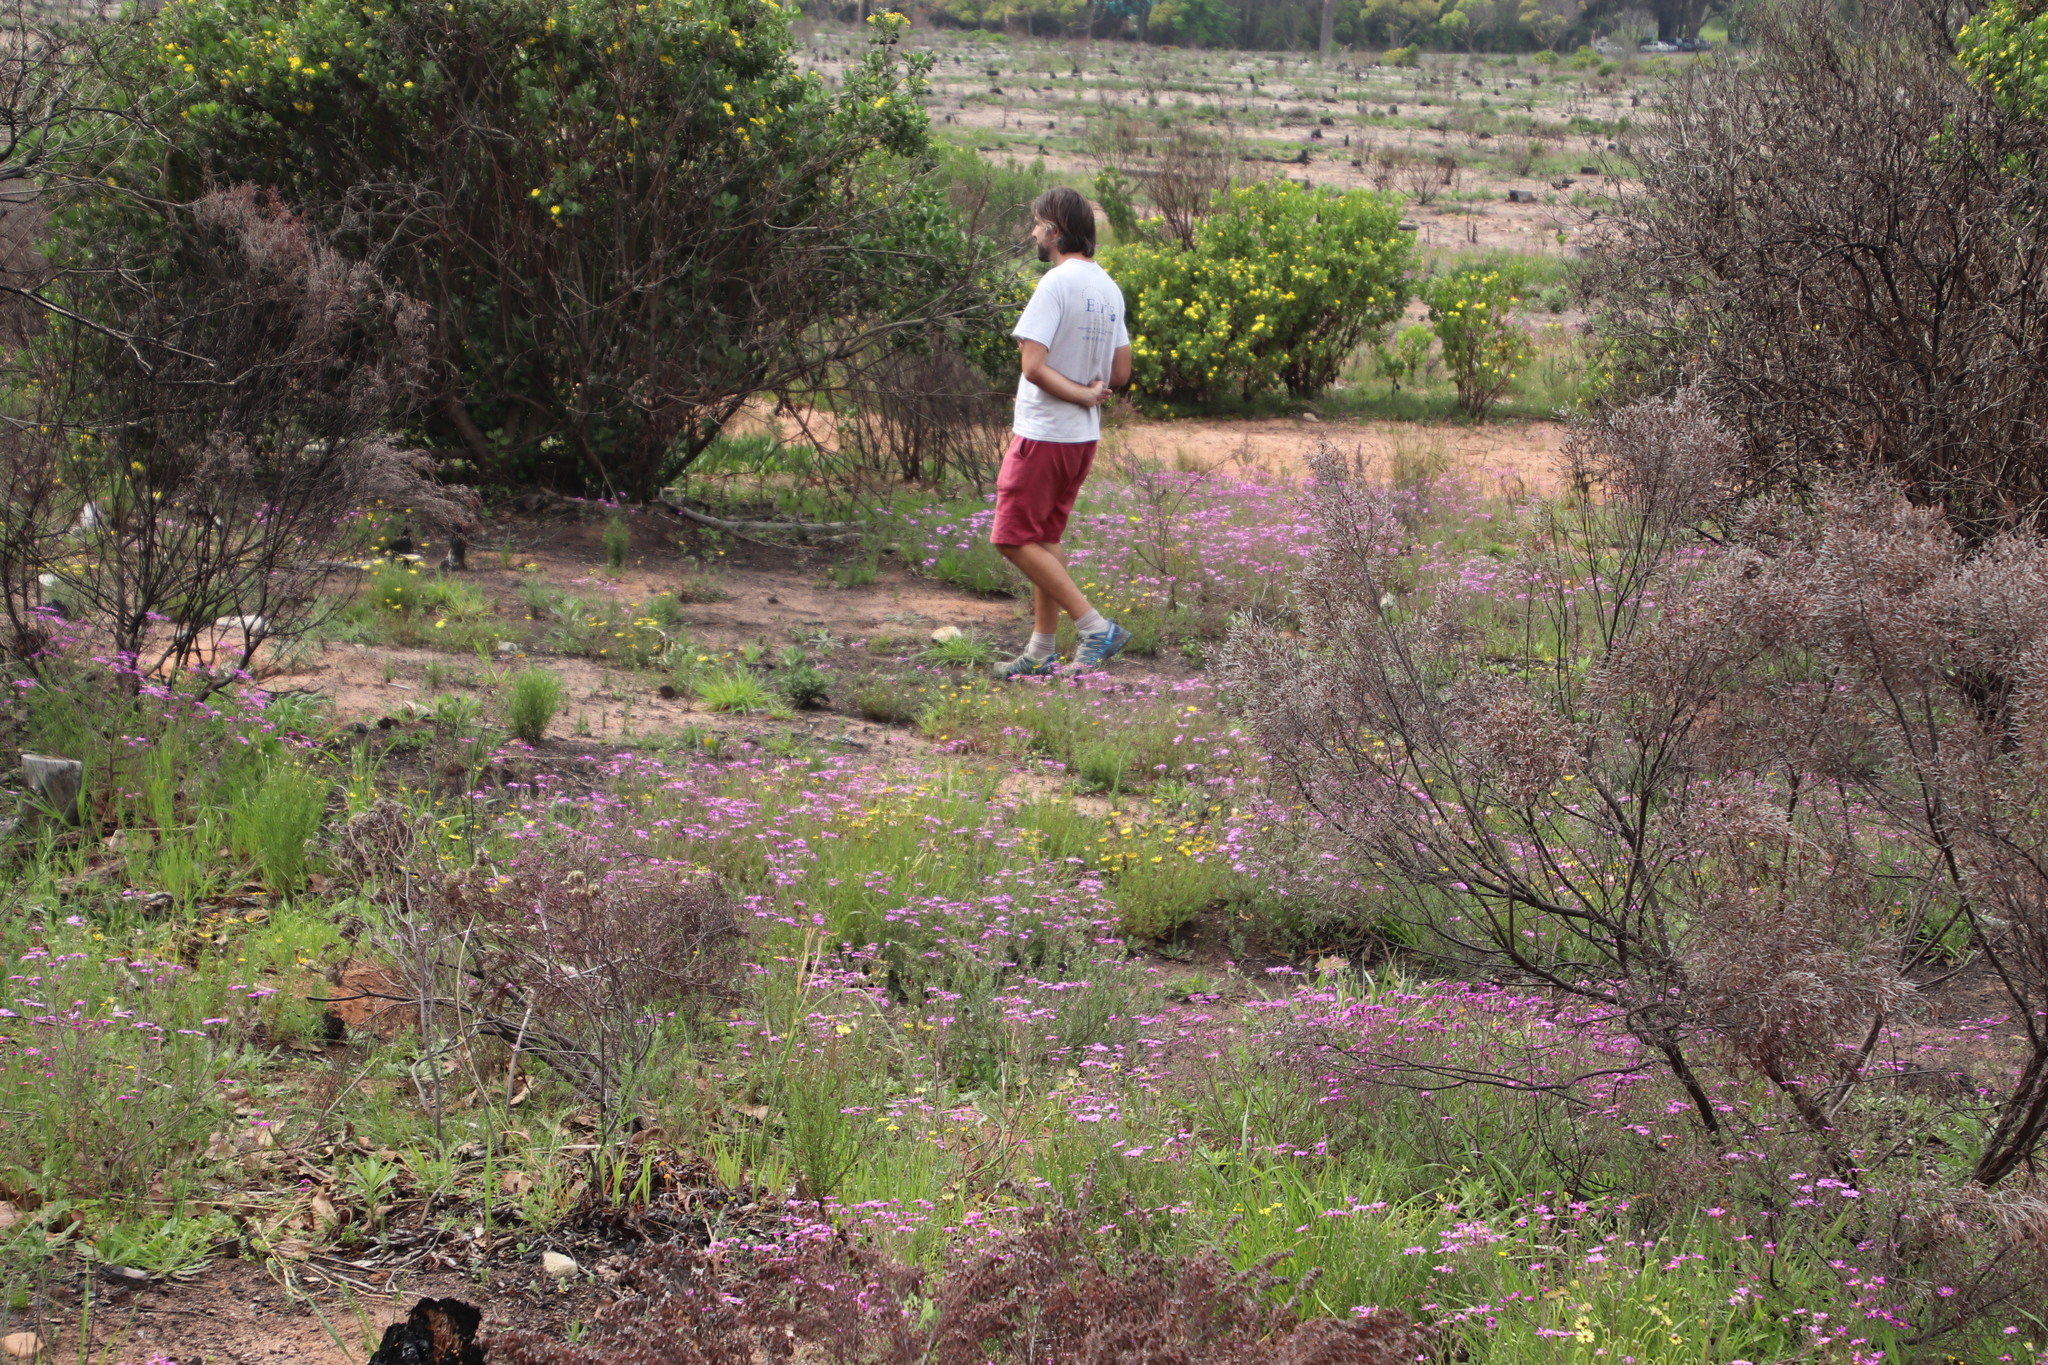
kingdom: Plantae
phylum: Tracheophyta
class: Magnoliopsida
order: Asterales
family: Asteraceae
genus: Senecio
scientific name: Senecio arenarius
